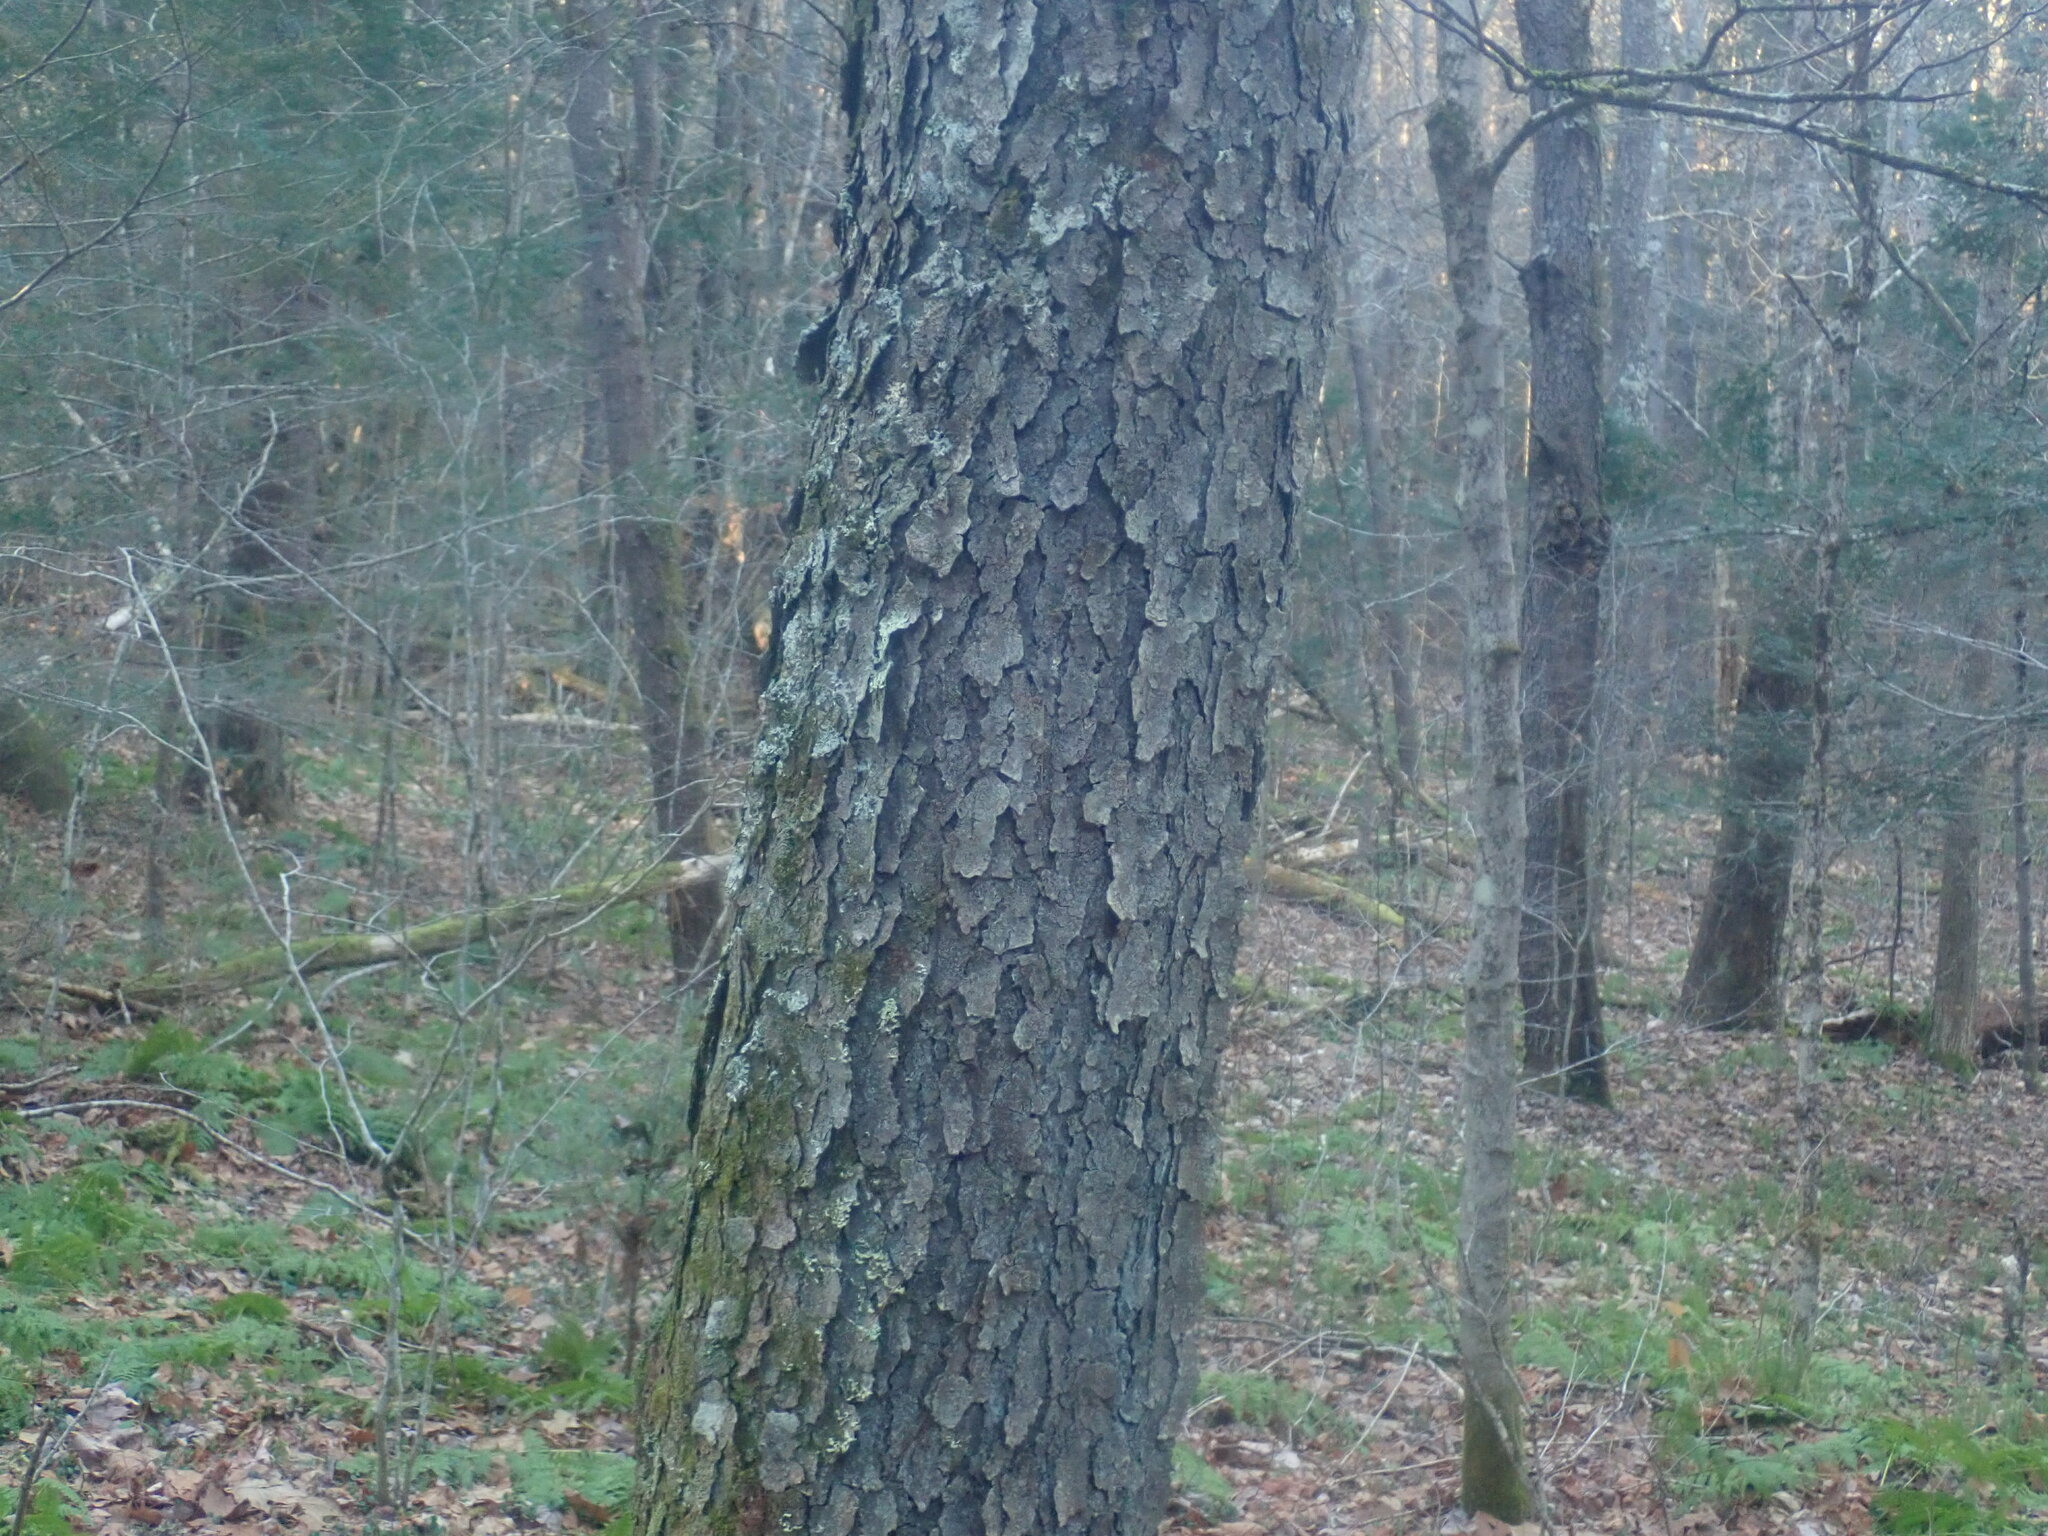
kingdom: Plantae
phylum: Tracheophyta
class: Magnoliopsida
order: Rosales
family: Rosaceae
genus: Prunus
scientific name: Prunus serotina
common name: Black cherry
